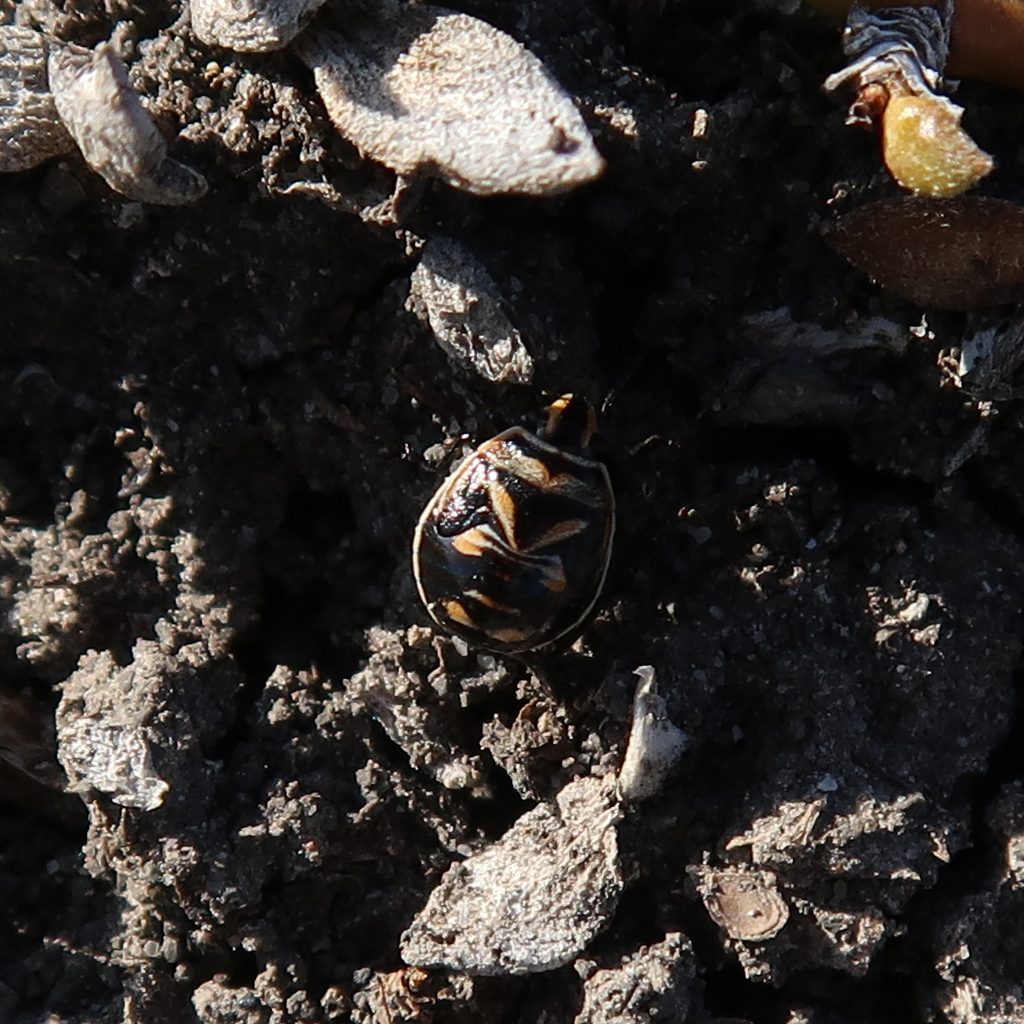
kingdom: Animalia
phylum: Arthropoda
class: Insecta
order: Hemiptera
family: Pentatomidae
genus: Anaxilaus
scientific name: Anaxilaus
